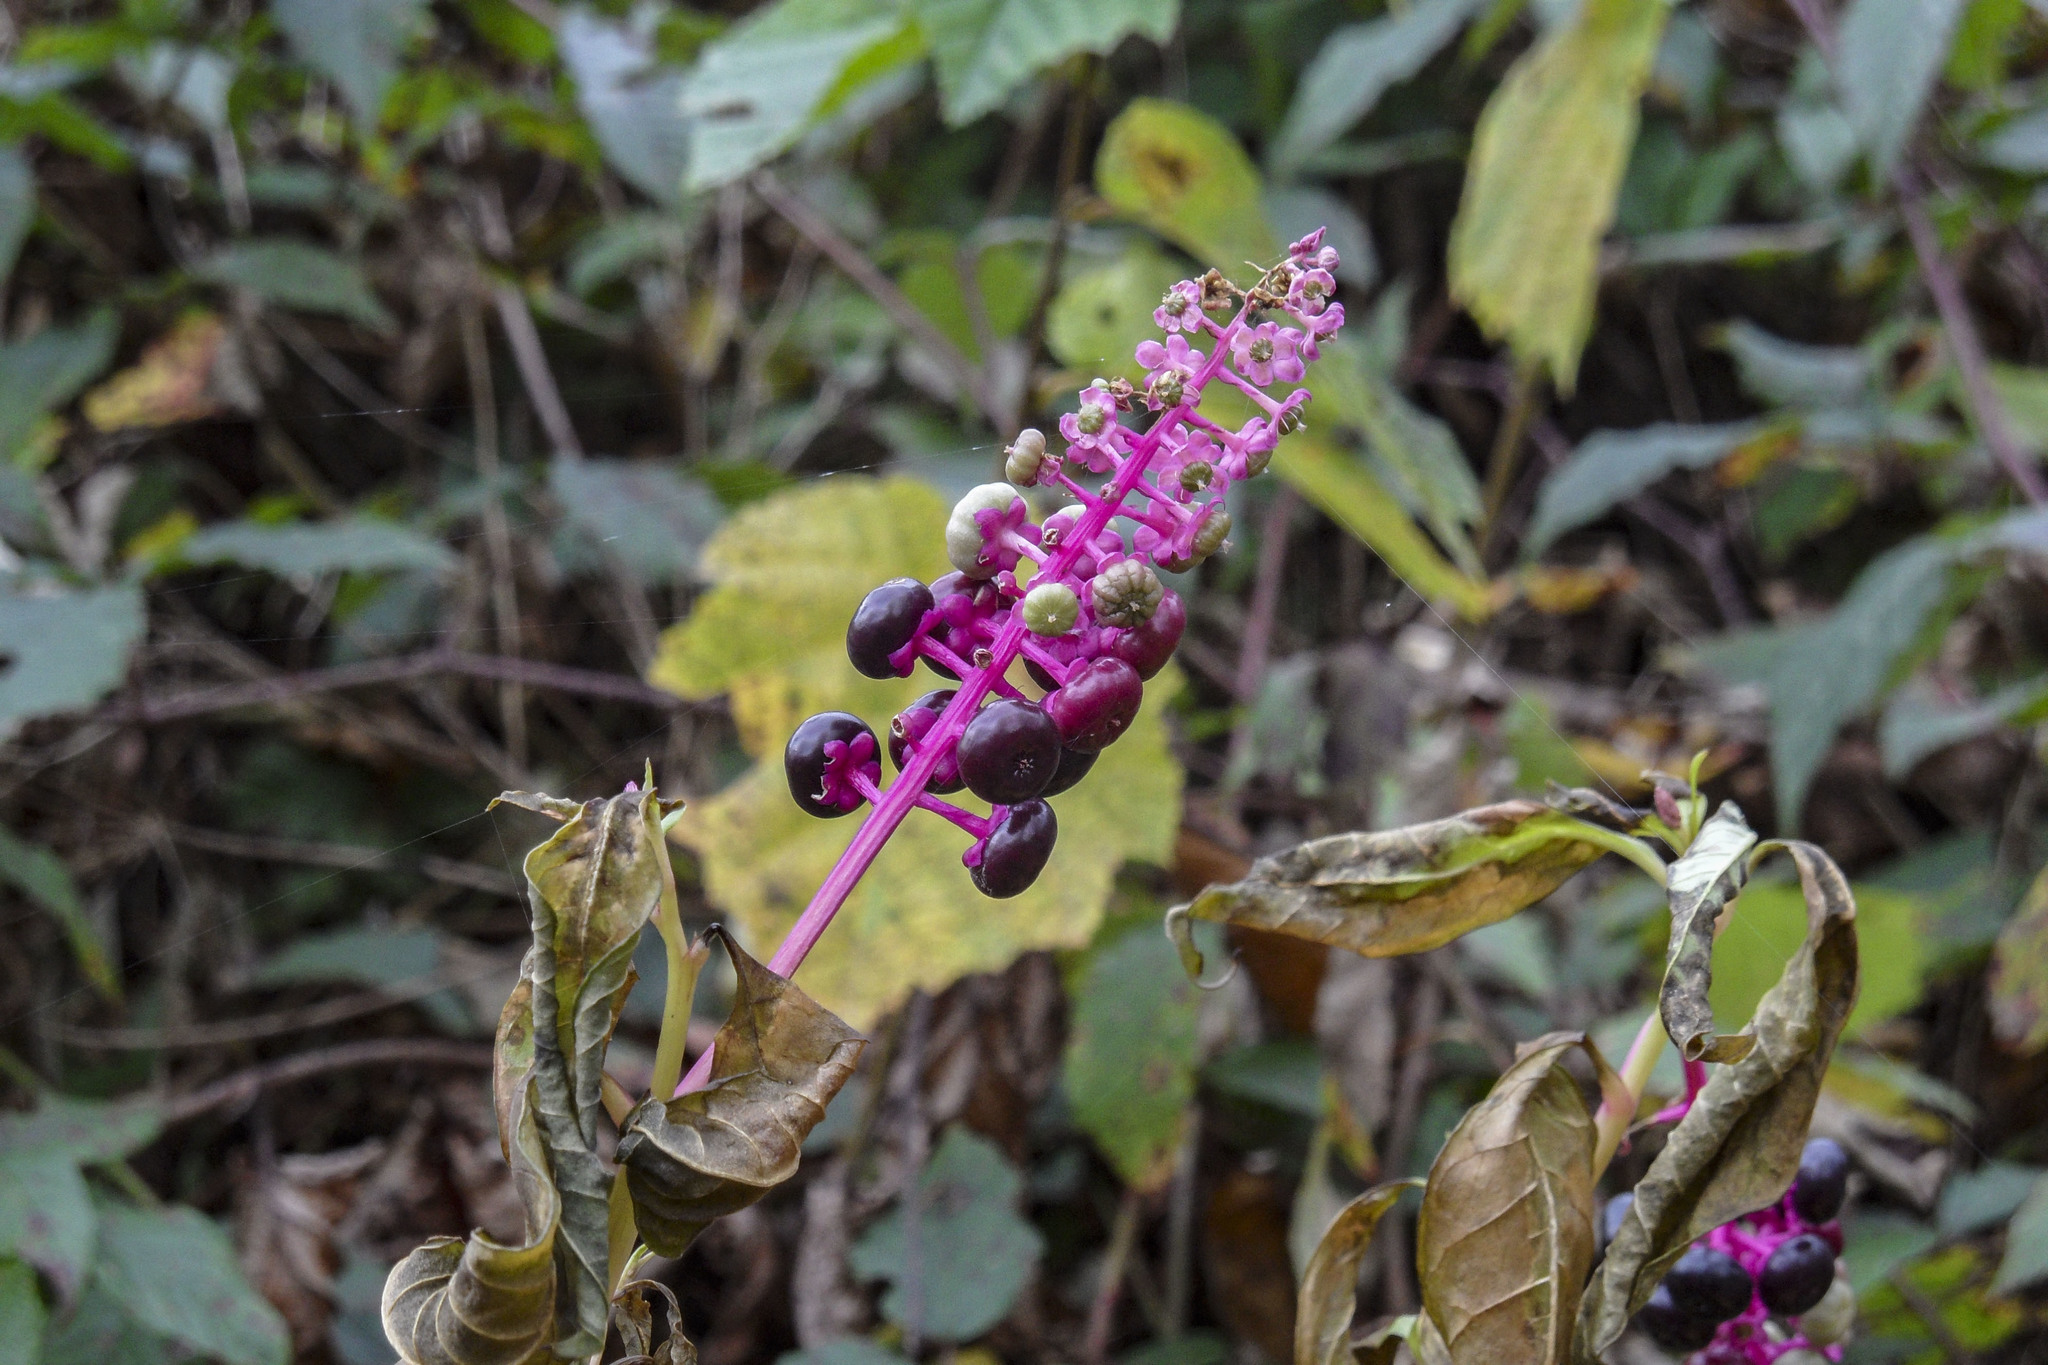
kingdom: Plantae
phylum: Tracheophyta
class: Magnoliopsida
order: Caryophyllales
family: Phytolaccaceae
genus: Phytolacca
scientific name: Phytolacca americana
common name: American pokeweed
